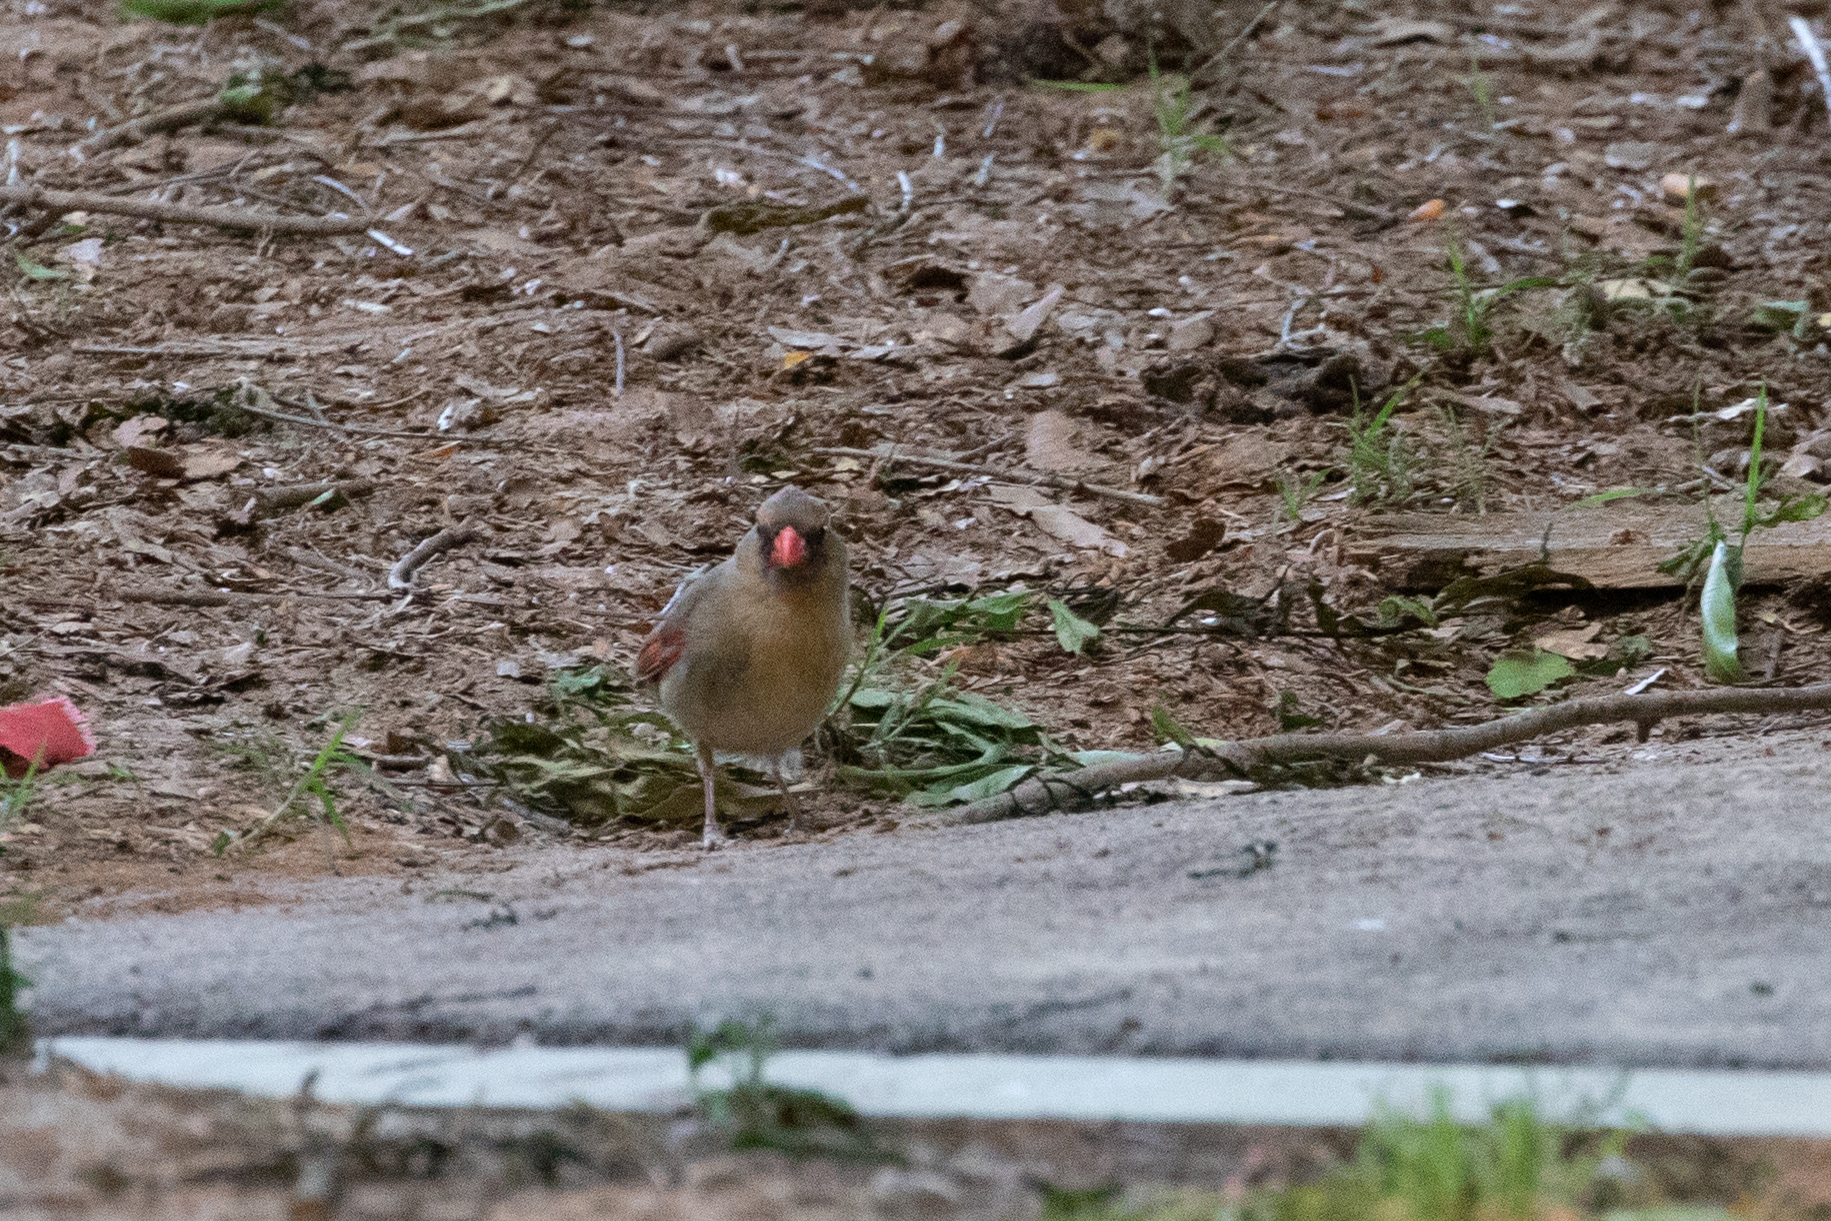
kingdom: Animalia
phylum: Chordata
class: Aves
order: Passeriformes
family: Cardinalidae
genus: Cardinalis
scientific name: Cardinalis cardinalis
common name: Northern cardinal
